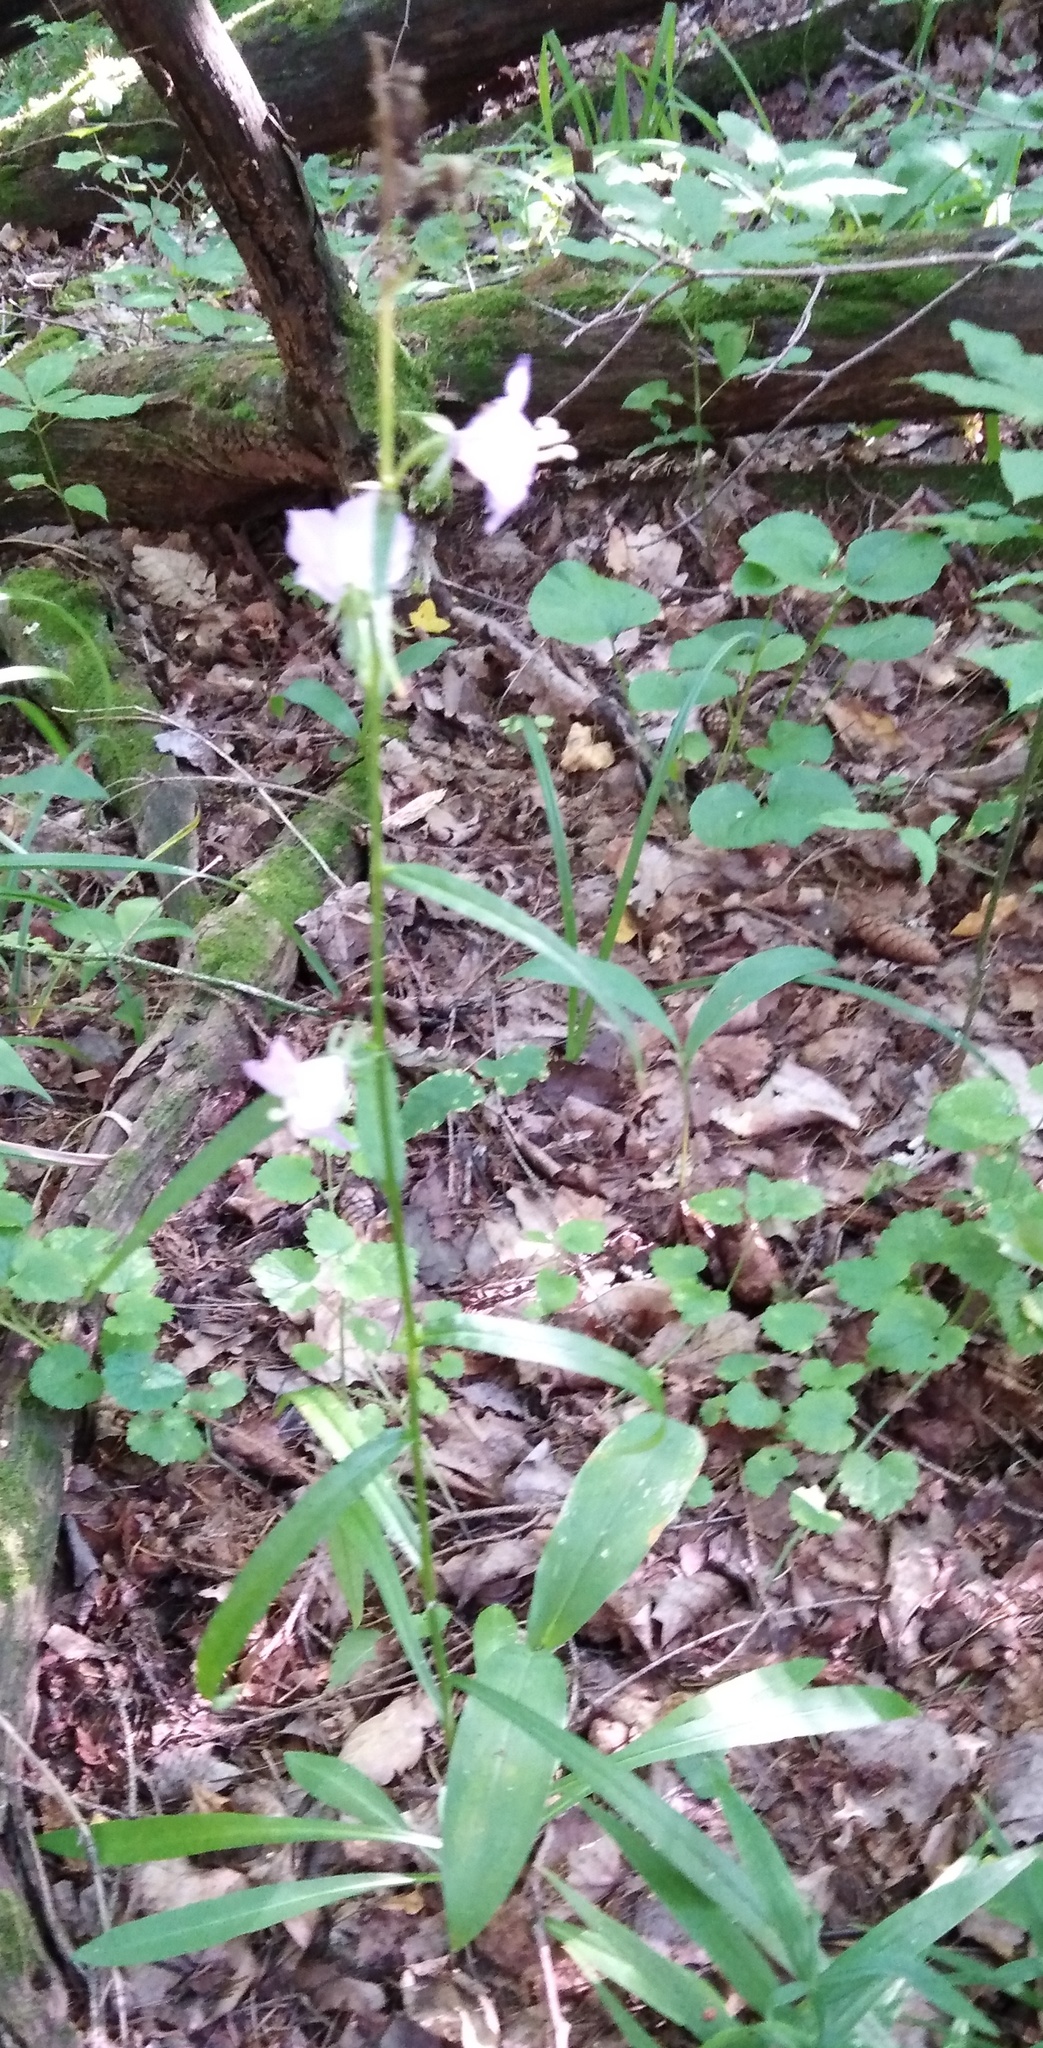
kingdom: Plantae
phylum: Tracheophyta
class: Magnoliopsida
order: Asterales
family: Campanulaceae
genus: Campanula
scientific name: Campanula persicifolia
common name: Peach-leaved bellflower
